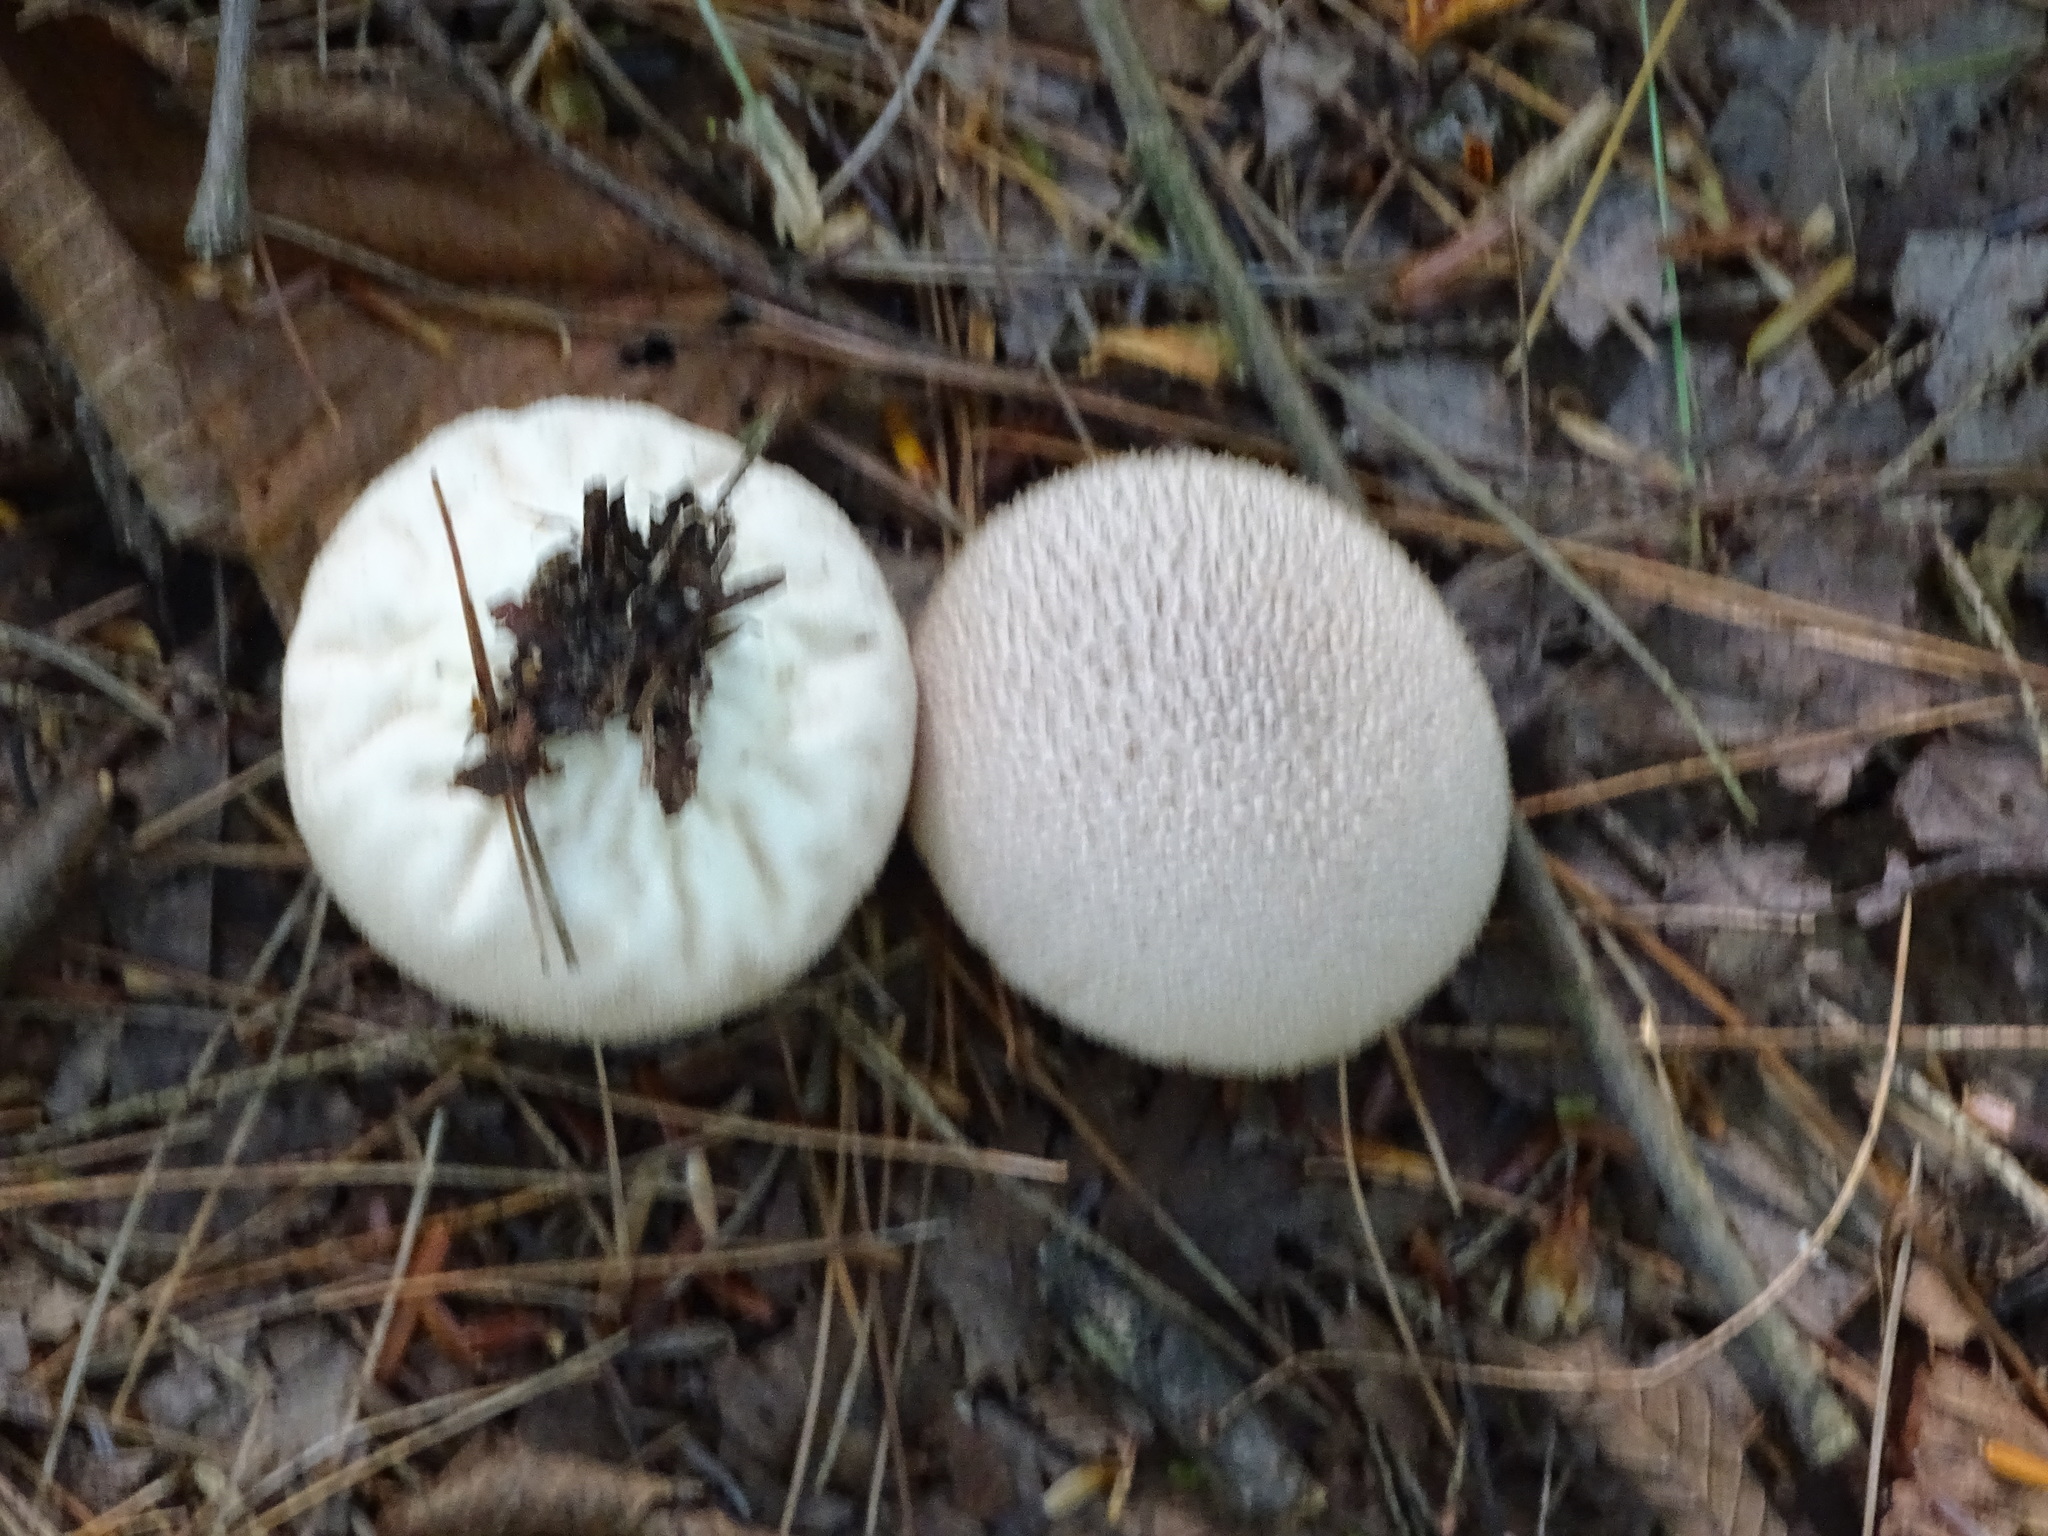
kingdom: Fungi
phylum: Basidiomycota
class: Agaricomycetes
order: Agaricales
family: Lycoperdaceae
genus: Lycoperdon
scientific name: Lycoperdon perlatum
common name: Common puffball
